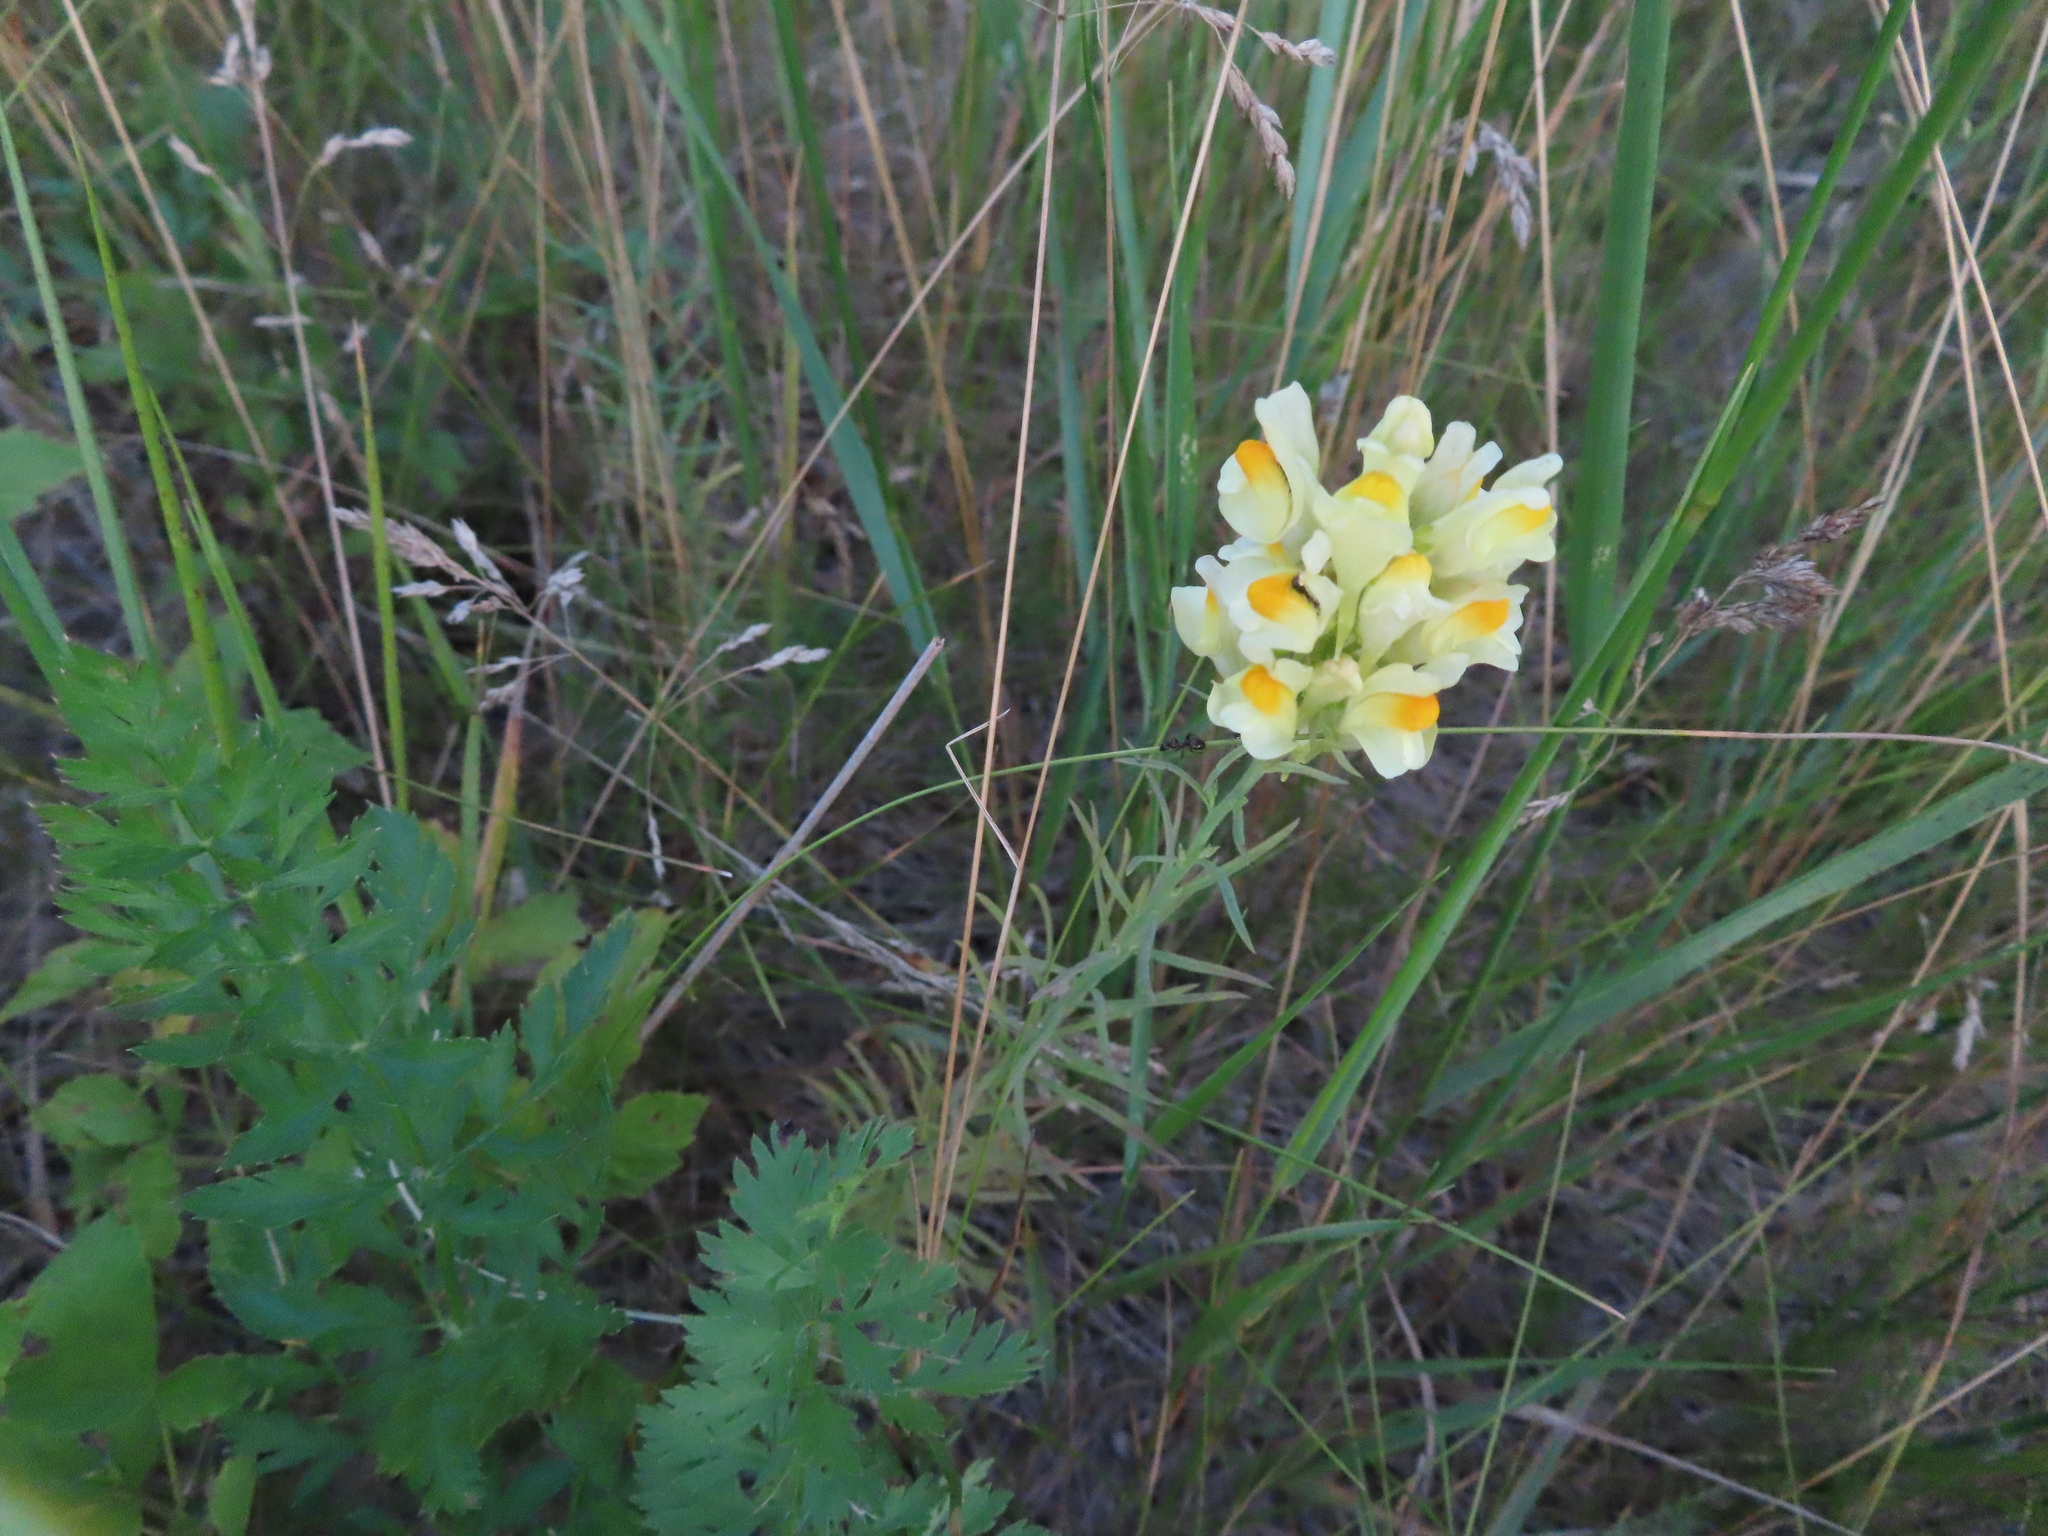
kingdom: Plantae
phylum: Tracheophyta
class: Magnoliopsida
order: Lamiales
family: Plantaginaceae
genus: Linaria
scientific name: Linaria vulgaris
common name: Butter and eggs
